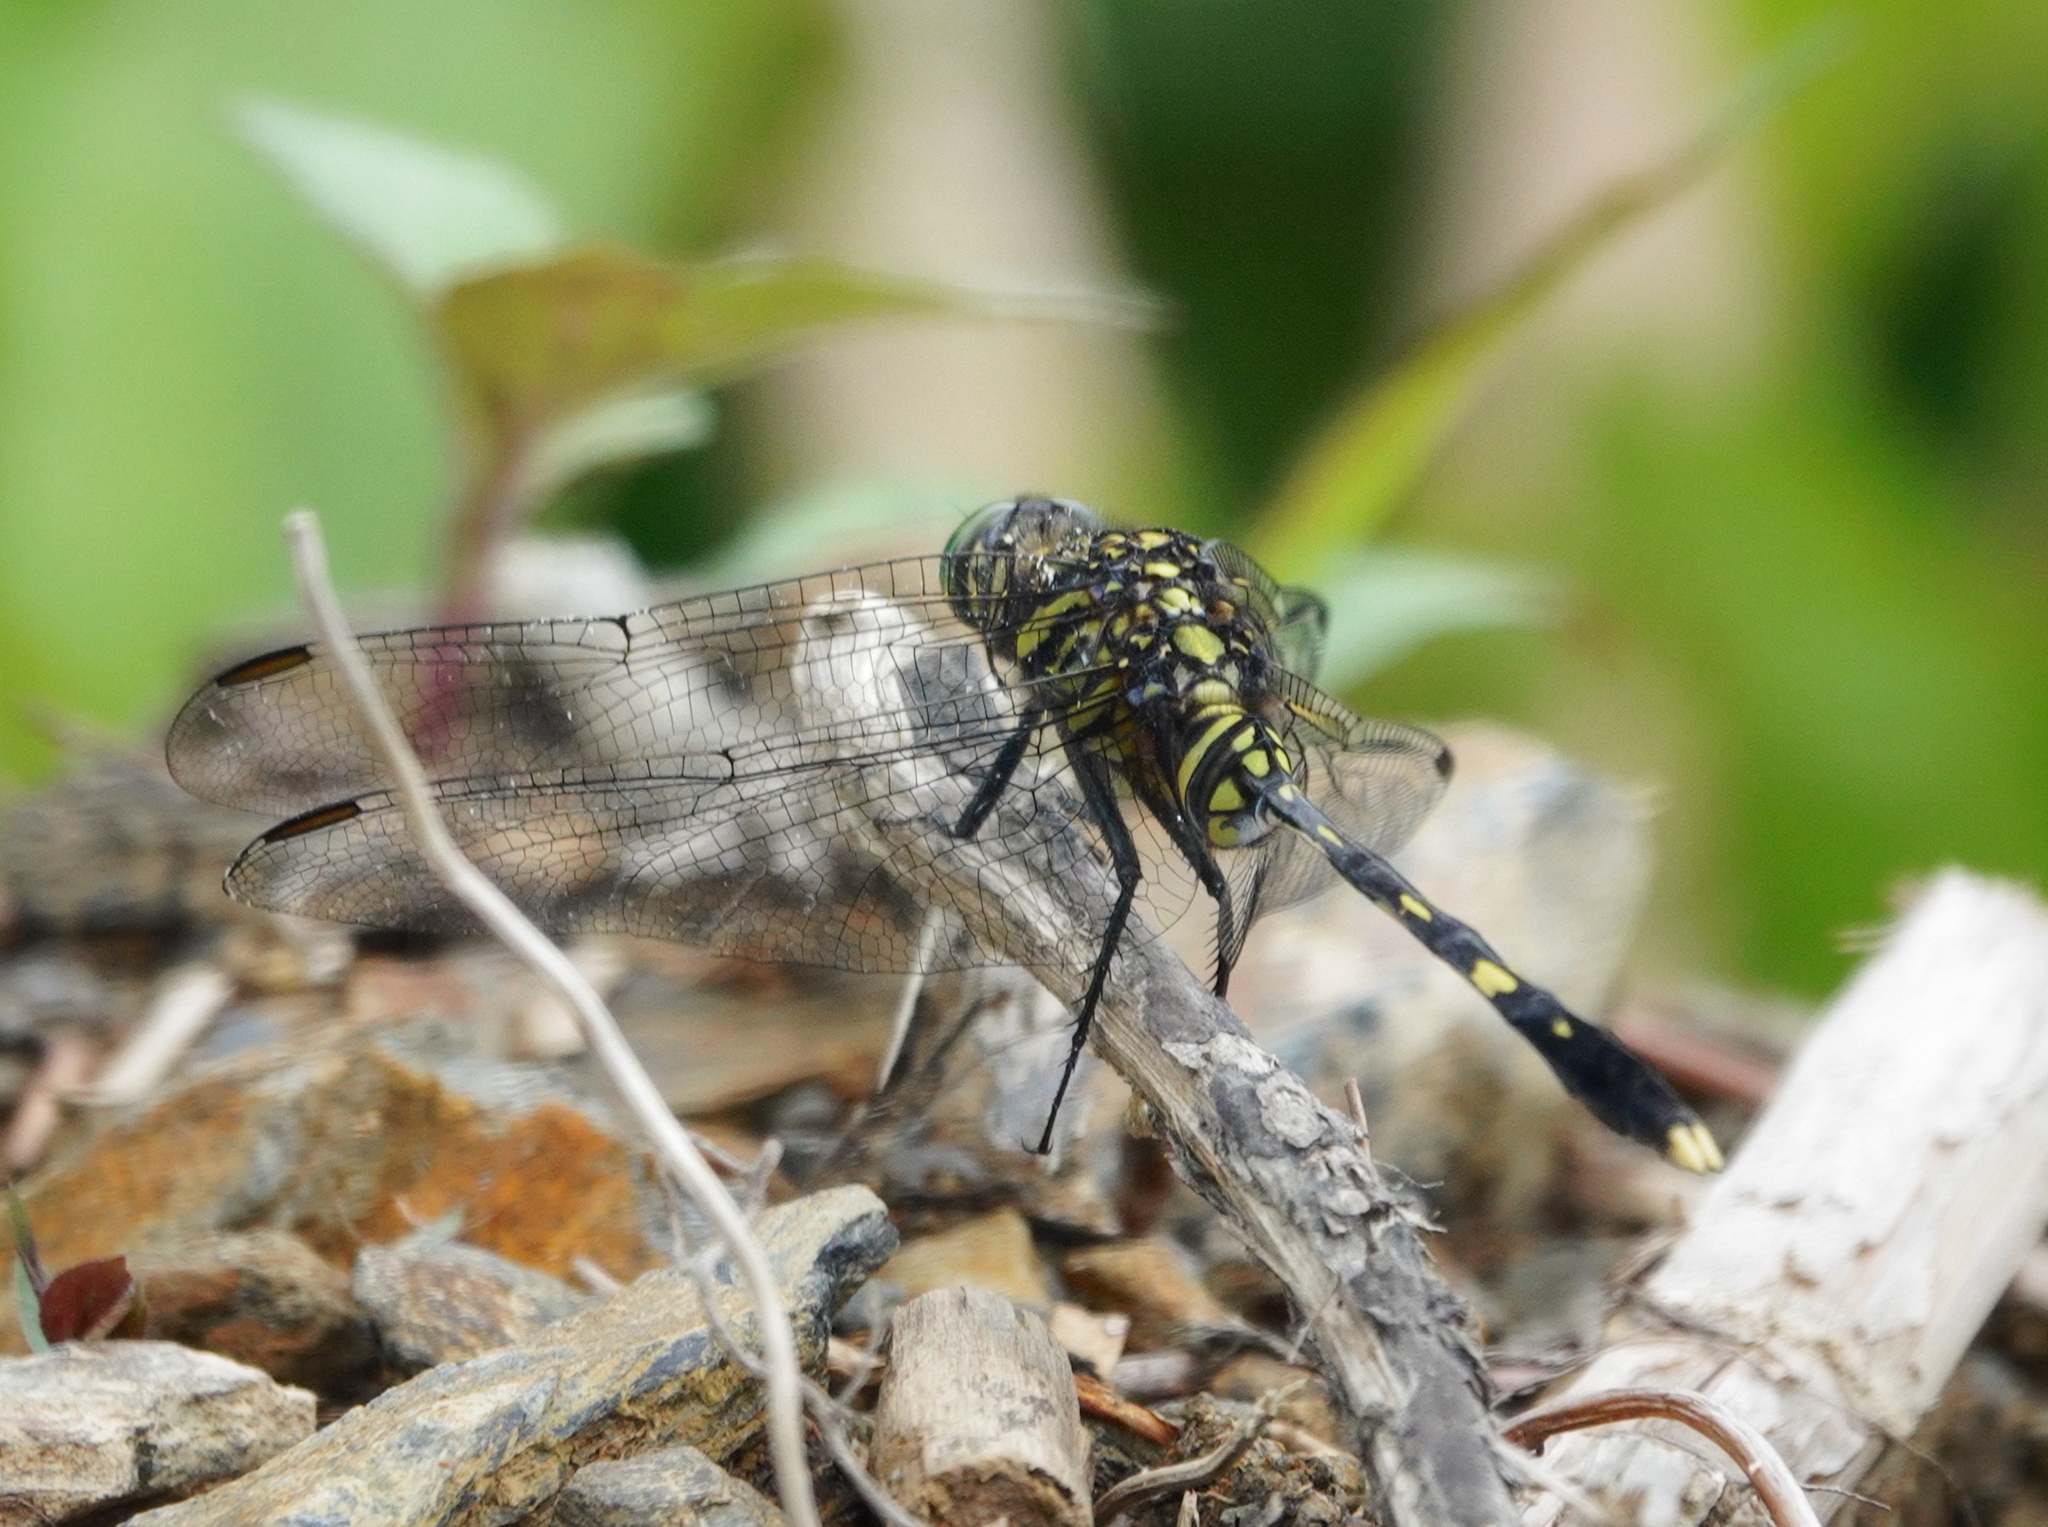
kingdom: Animalia
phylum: Arthropoda
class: Insecta
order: Odonata
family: Libellulidae
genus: Orthetrum
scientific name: Orthetrum serapia
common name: Green skimmer
